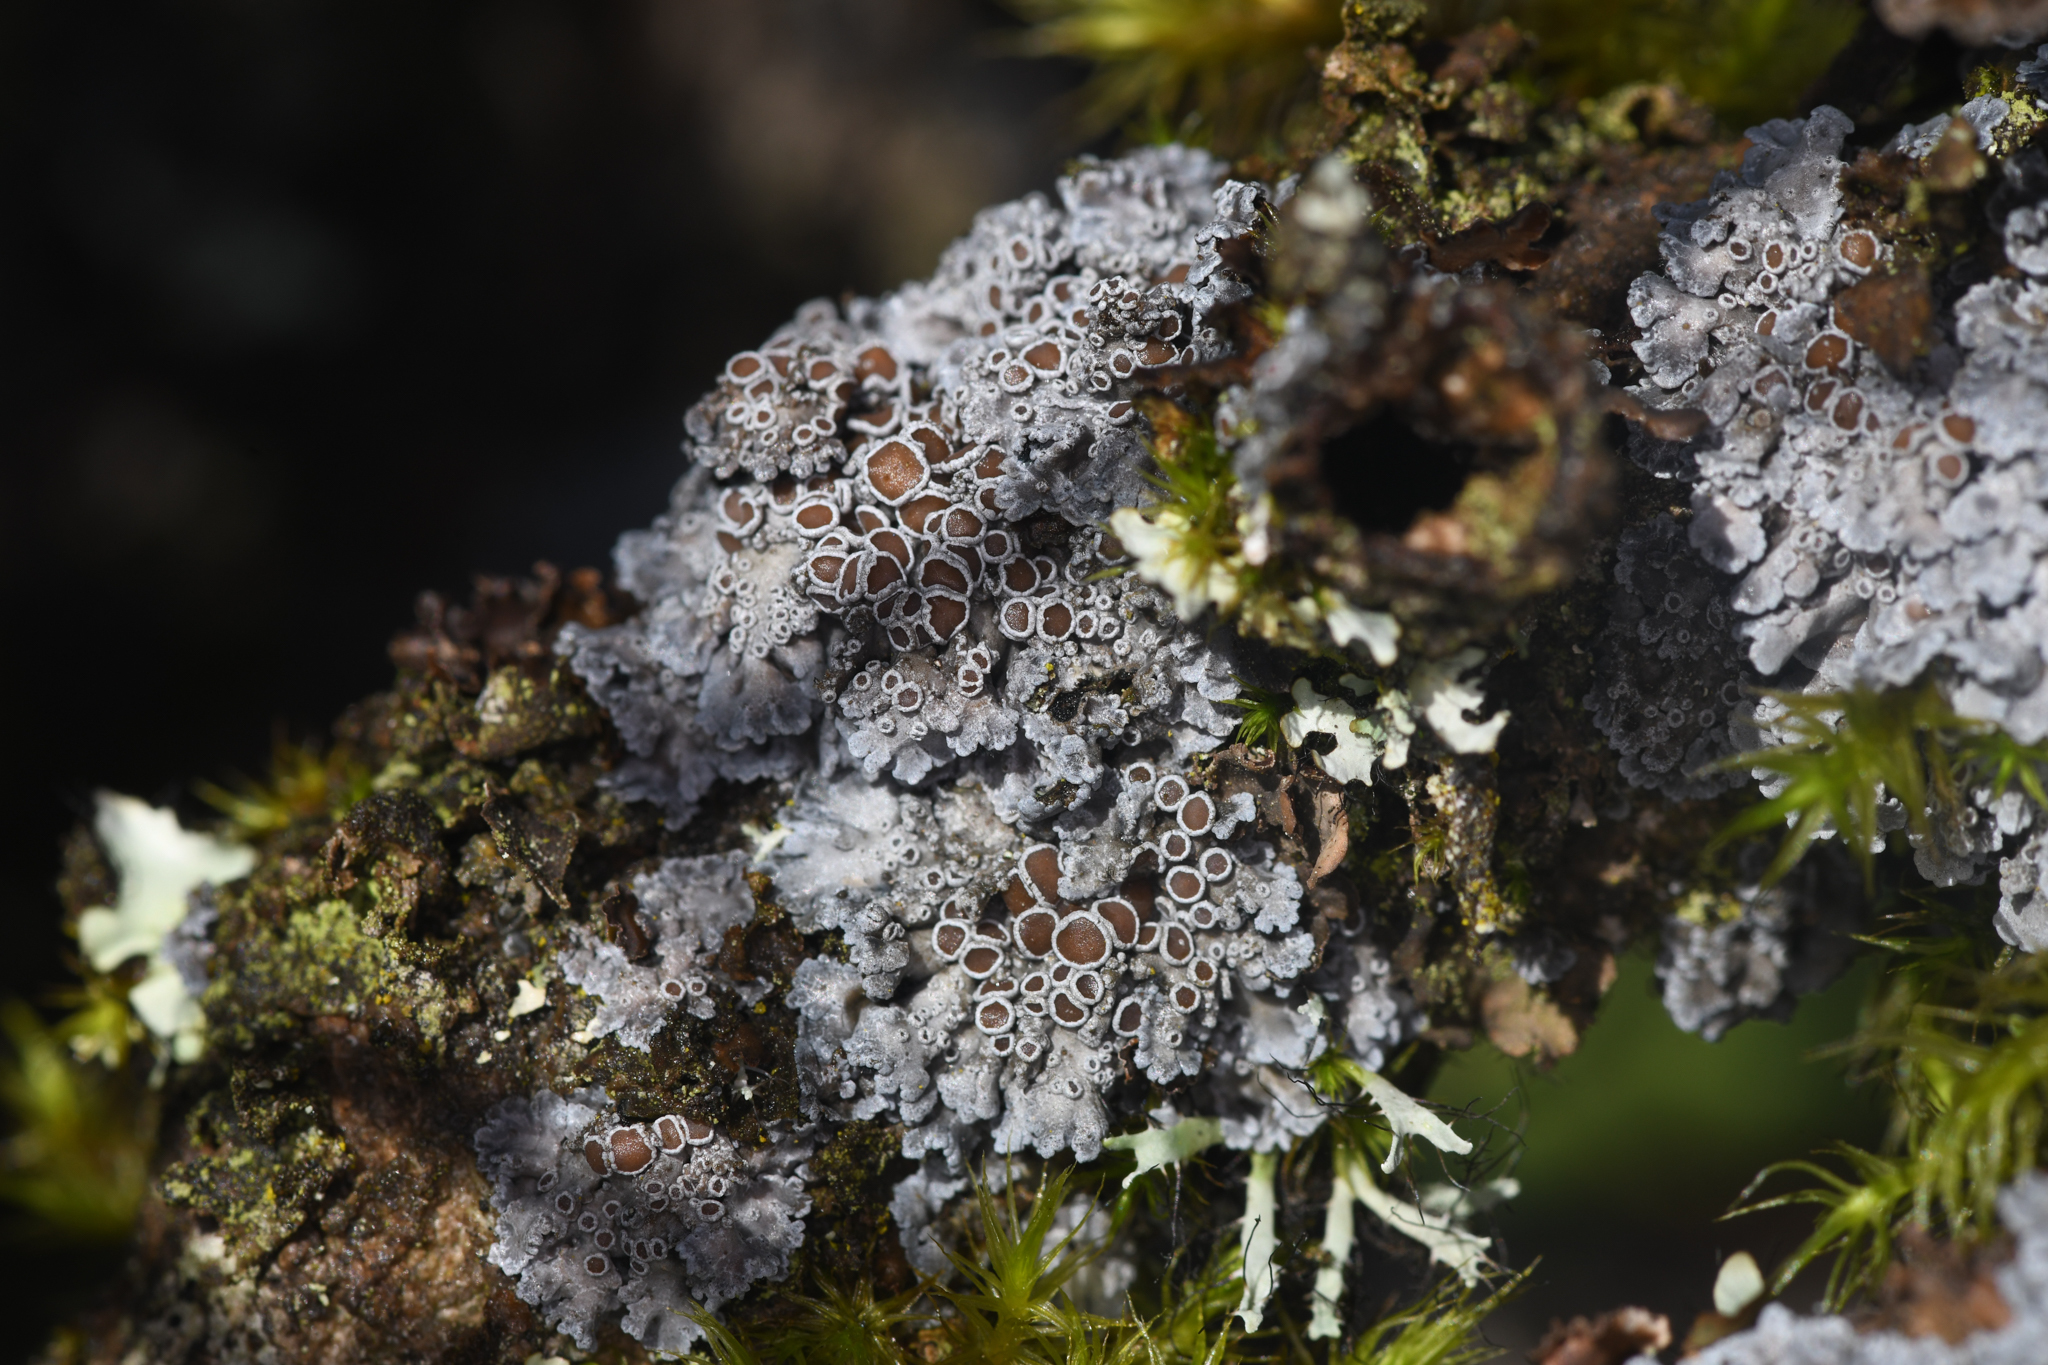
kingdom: Fungi
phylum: Ascomycota
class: Lecanoromycetes
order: Peltigerales
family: Pannariaceae
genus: Pannaria
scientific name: Pannaria rubiginosa
